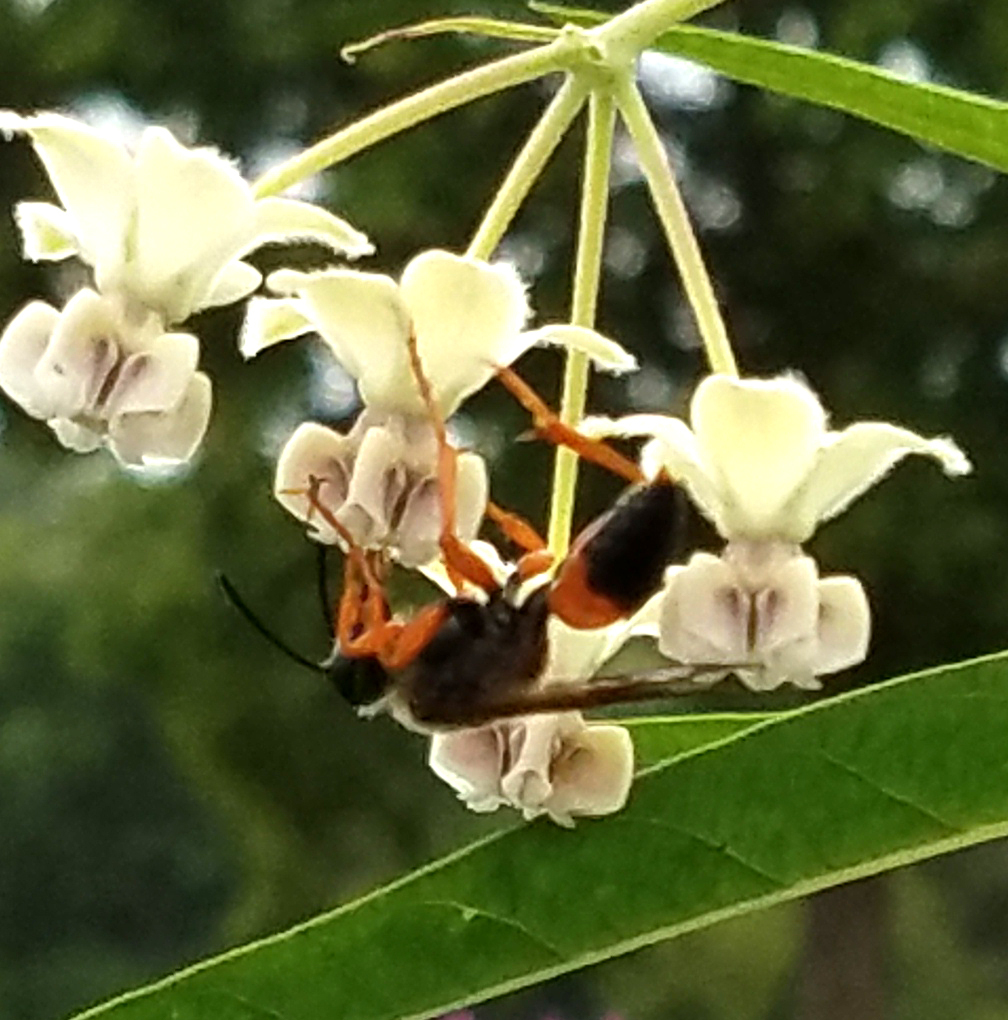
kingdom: Animalia
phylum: Arthropoda
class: Insecta
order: Hymenoptera
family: Sphecidae
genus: Sphex
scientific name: Sphex ichneumoneus
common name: Great golden digger wasp
